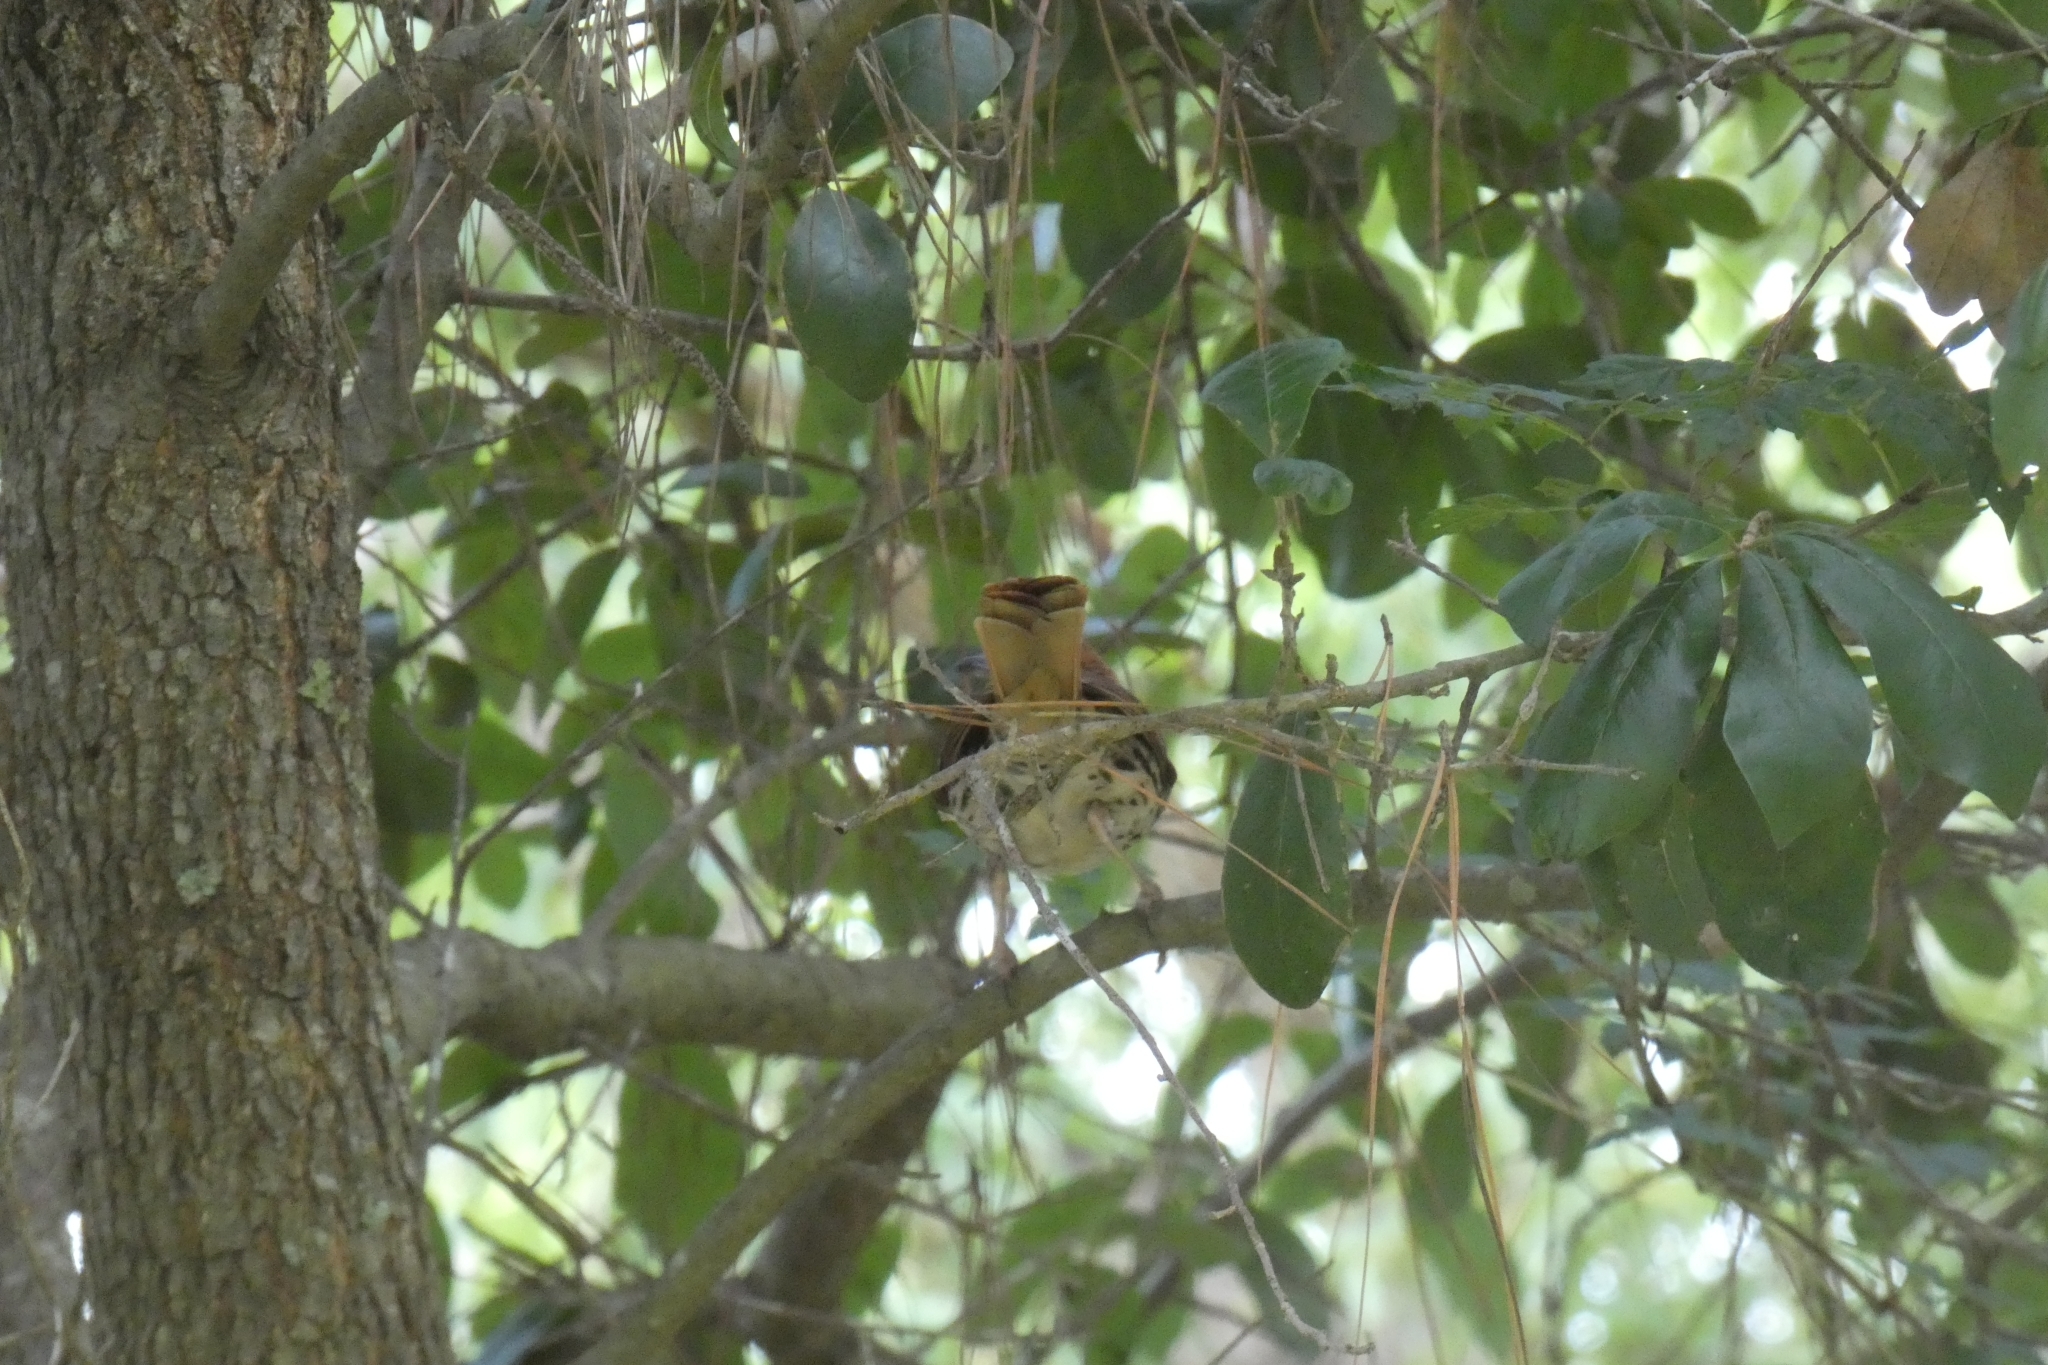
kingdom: Animalia
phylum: Chordata
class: Aves
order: Passeriformes
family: Turdidae
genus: Turdus
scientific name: Turdus migratorius
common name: American robin
